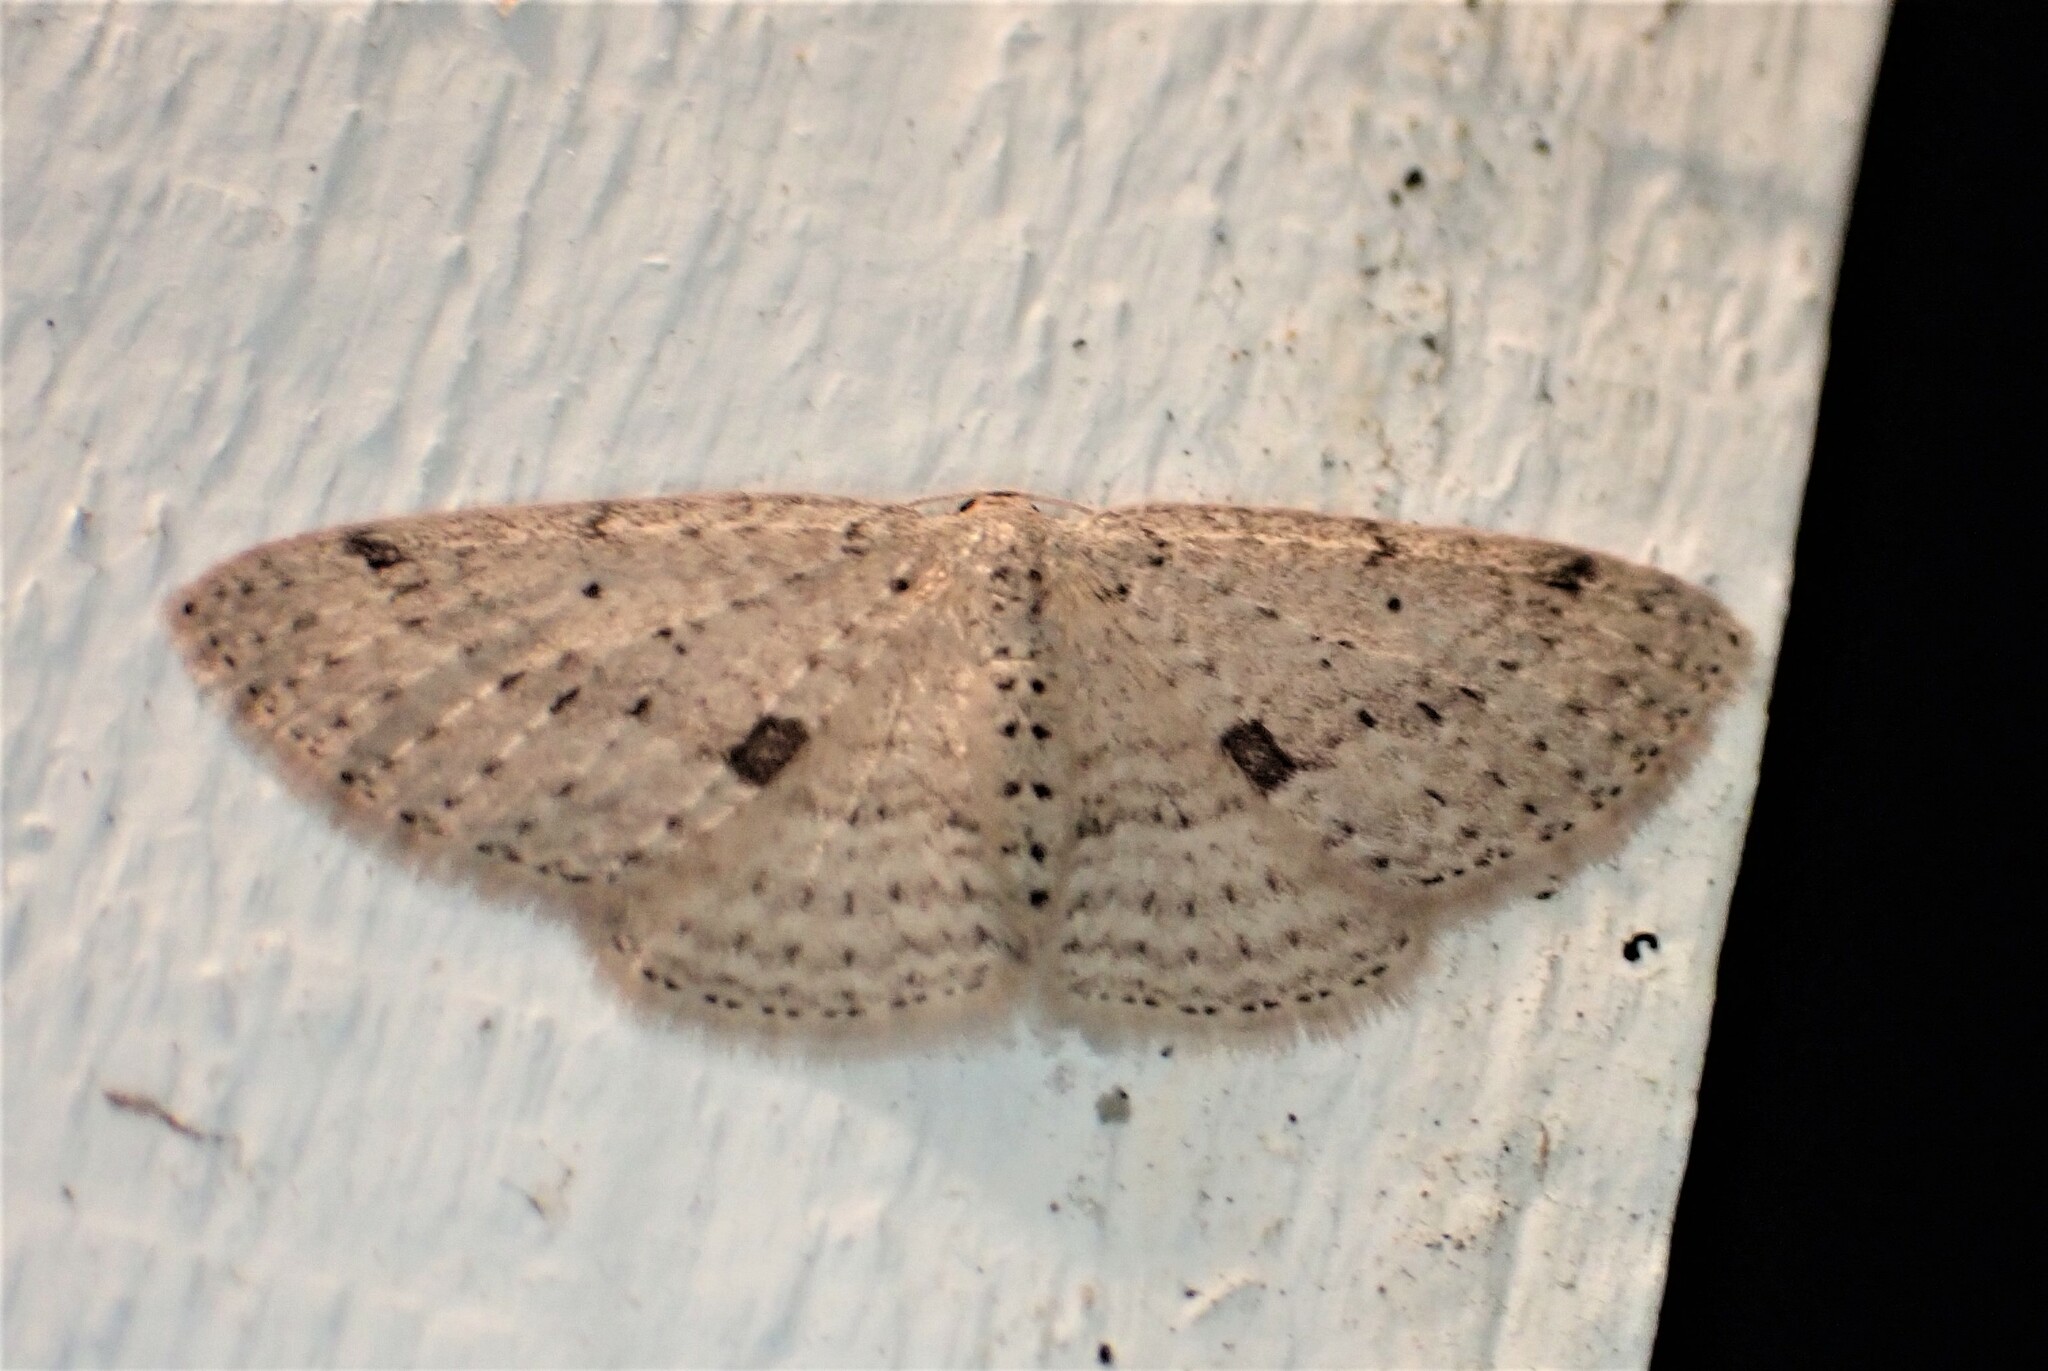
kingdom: Animalia
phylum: Arthropoda
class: Insecta
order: Lepidoptera
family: Geometridae
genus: Poecilasthena
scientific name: Poecilasthena schistaria
